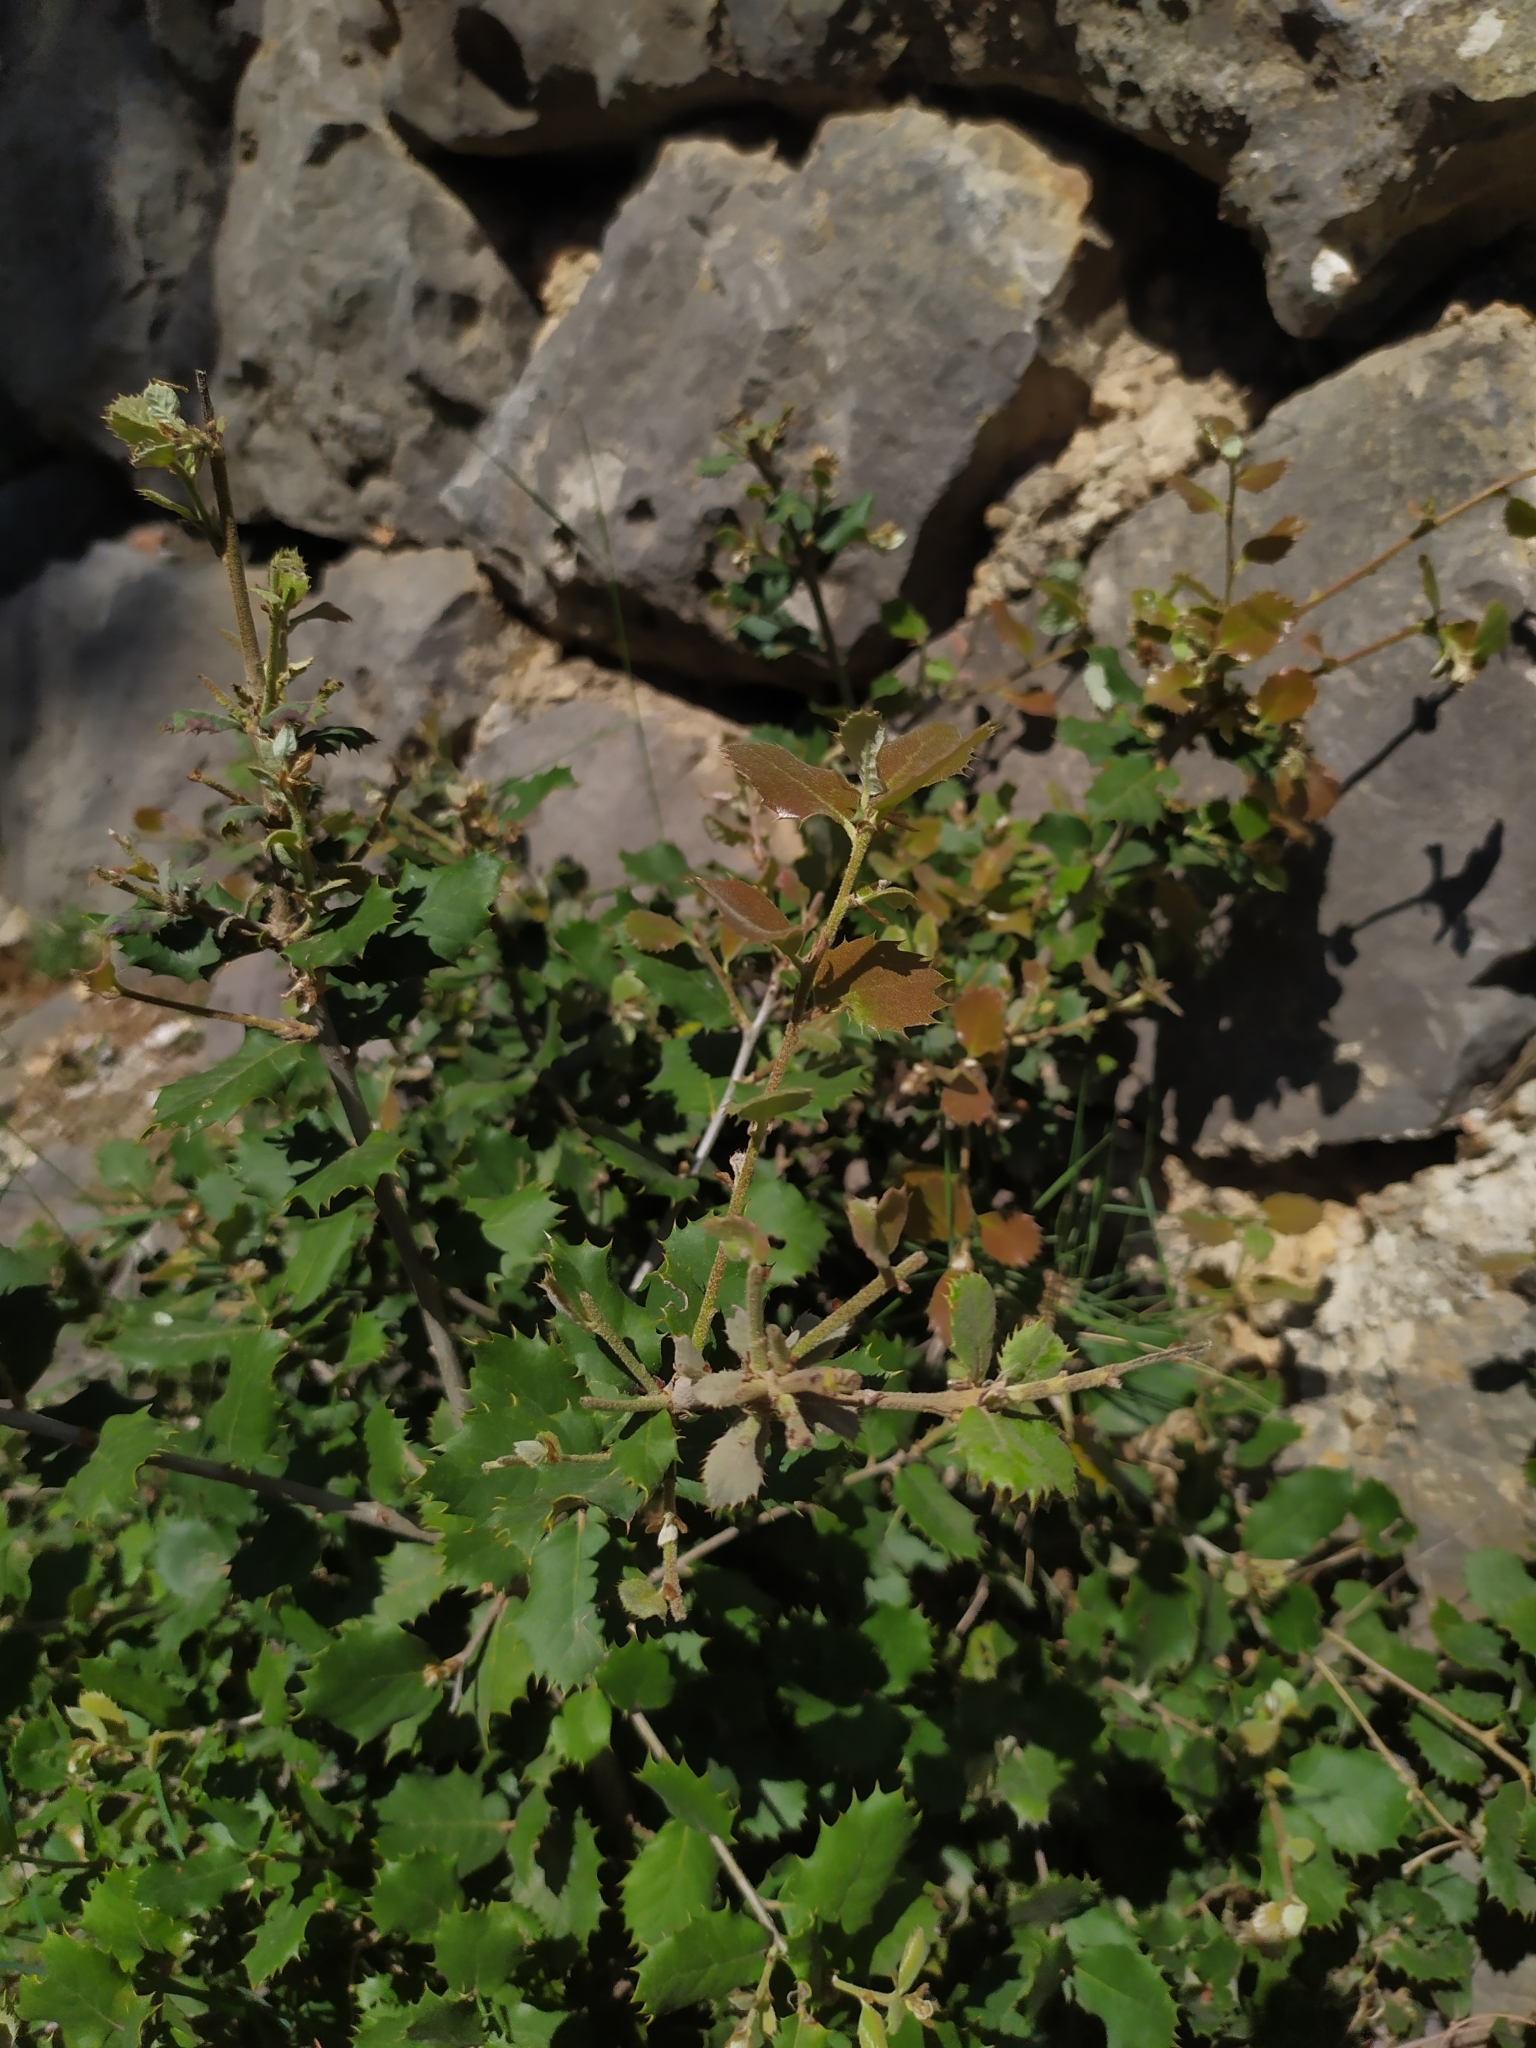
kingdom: Plantae
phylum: Tracheophyta
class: Magnoliopsida
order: Fagales
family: Fagaceae
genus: Quercus
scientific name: Quercus ilex
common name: Evergreen oak
